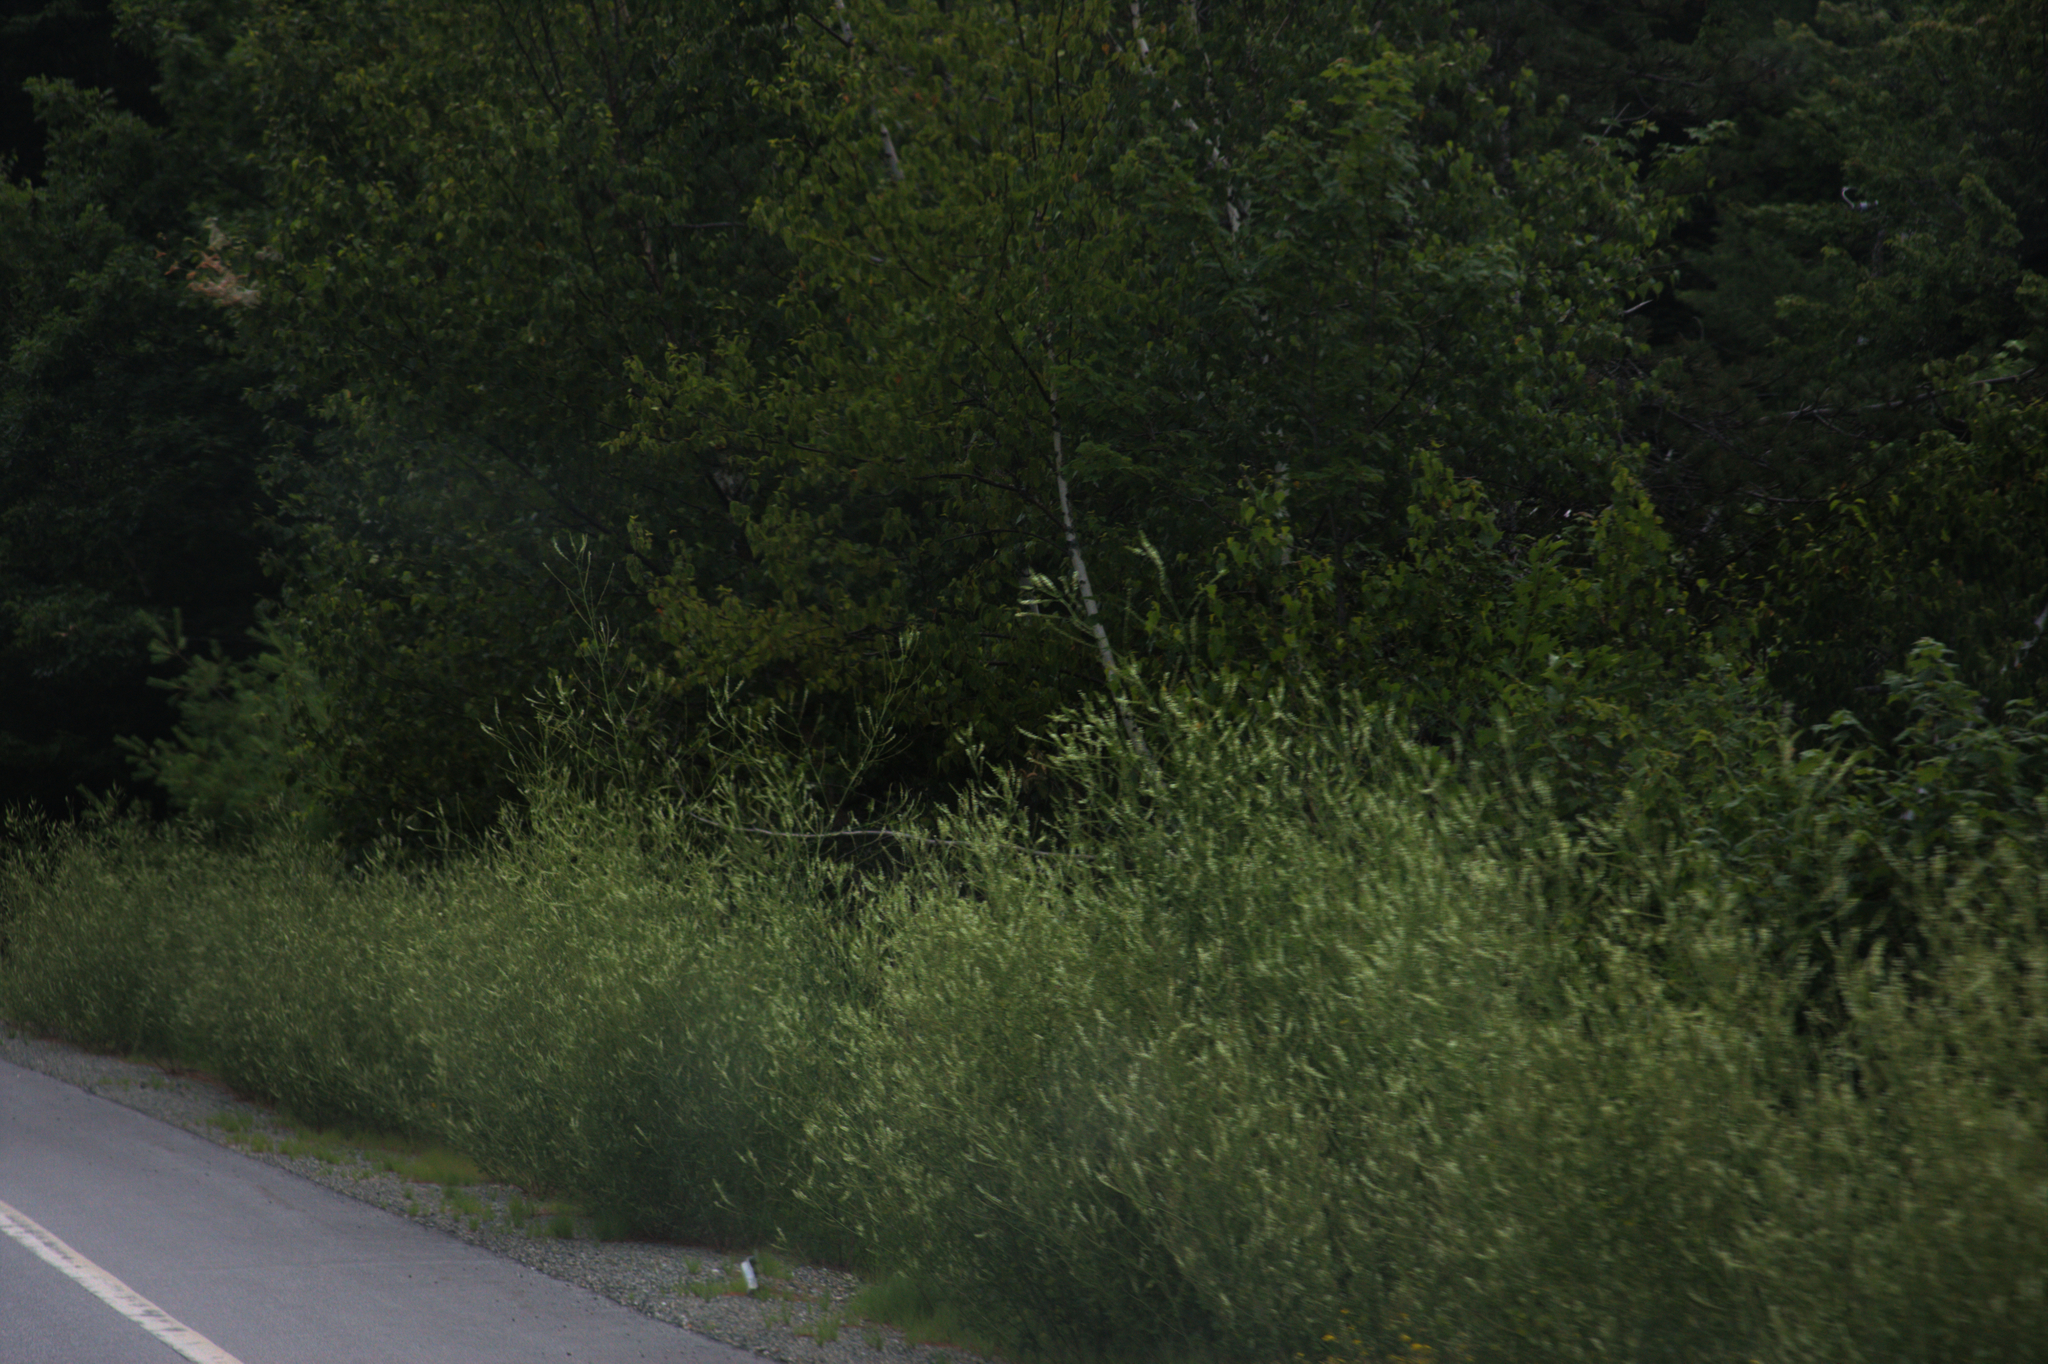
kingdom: Plantae
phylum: Tracheophyta
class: Magnoliopsida
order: Fabales
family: Fabaceae
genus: Melilotus
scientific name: Melilotus albus
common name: White melilot
